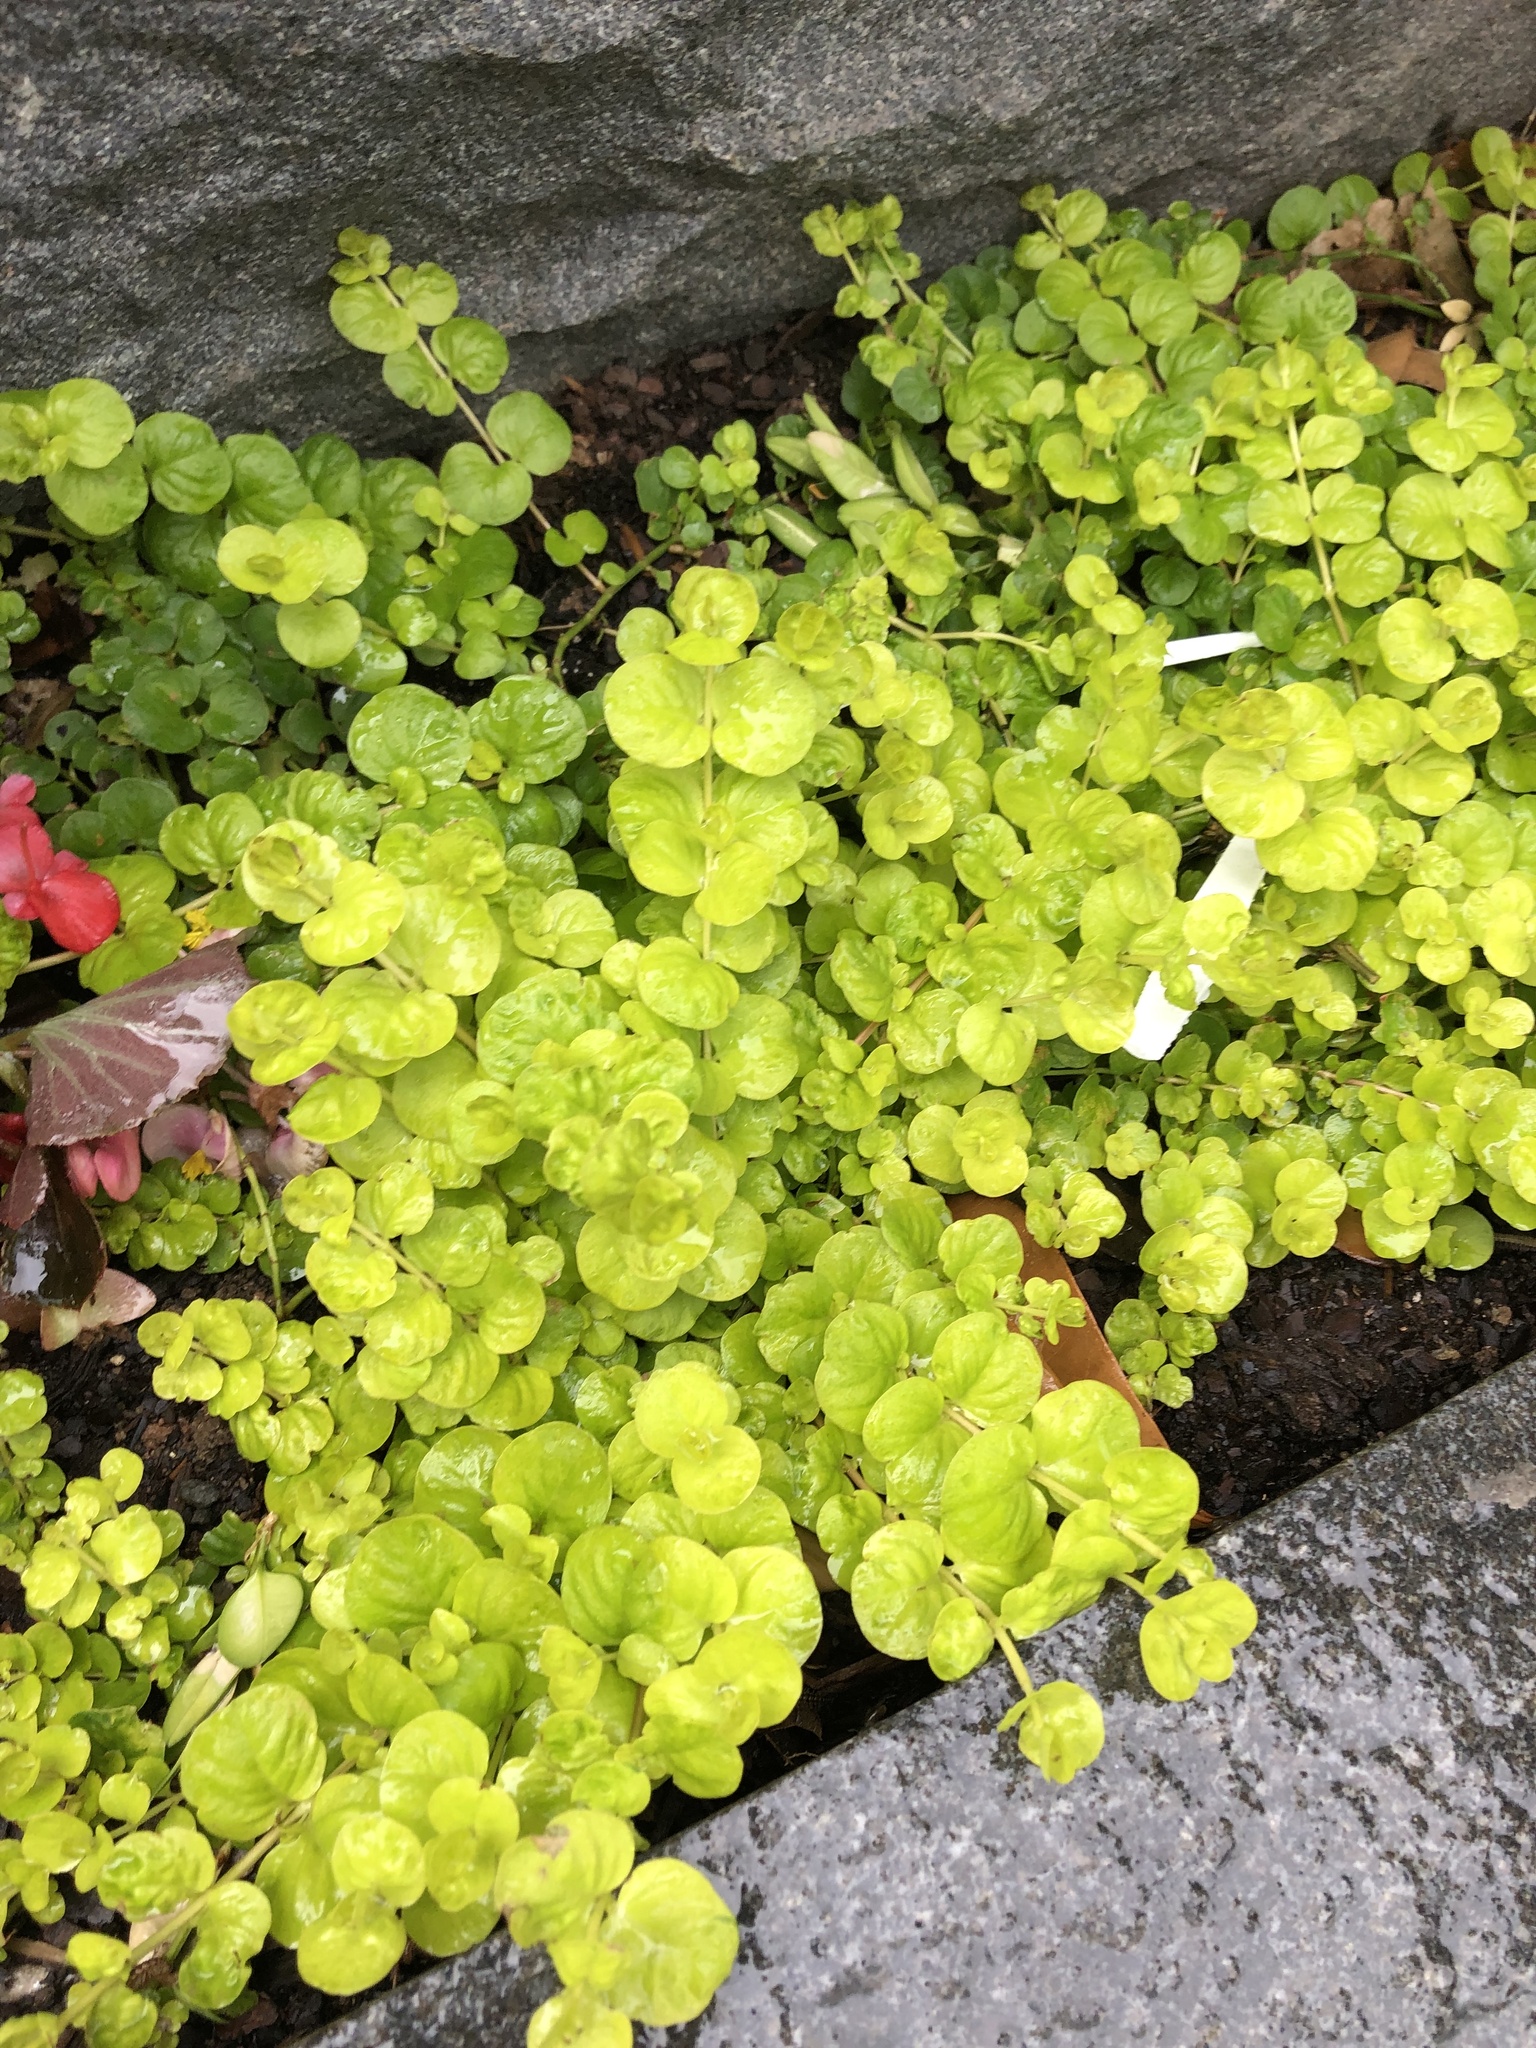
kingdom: Plantae
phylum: Tracheophyta
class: Magnoliopsida
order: Ericales
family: Primulaceae
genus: Lysimachia
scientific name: Lysimachia nummularia
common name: Moneywort
